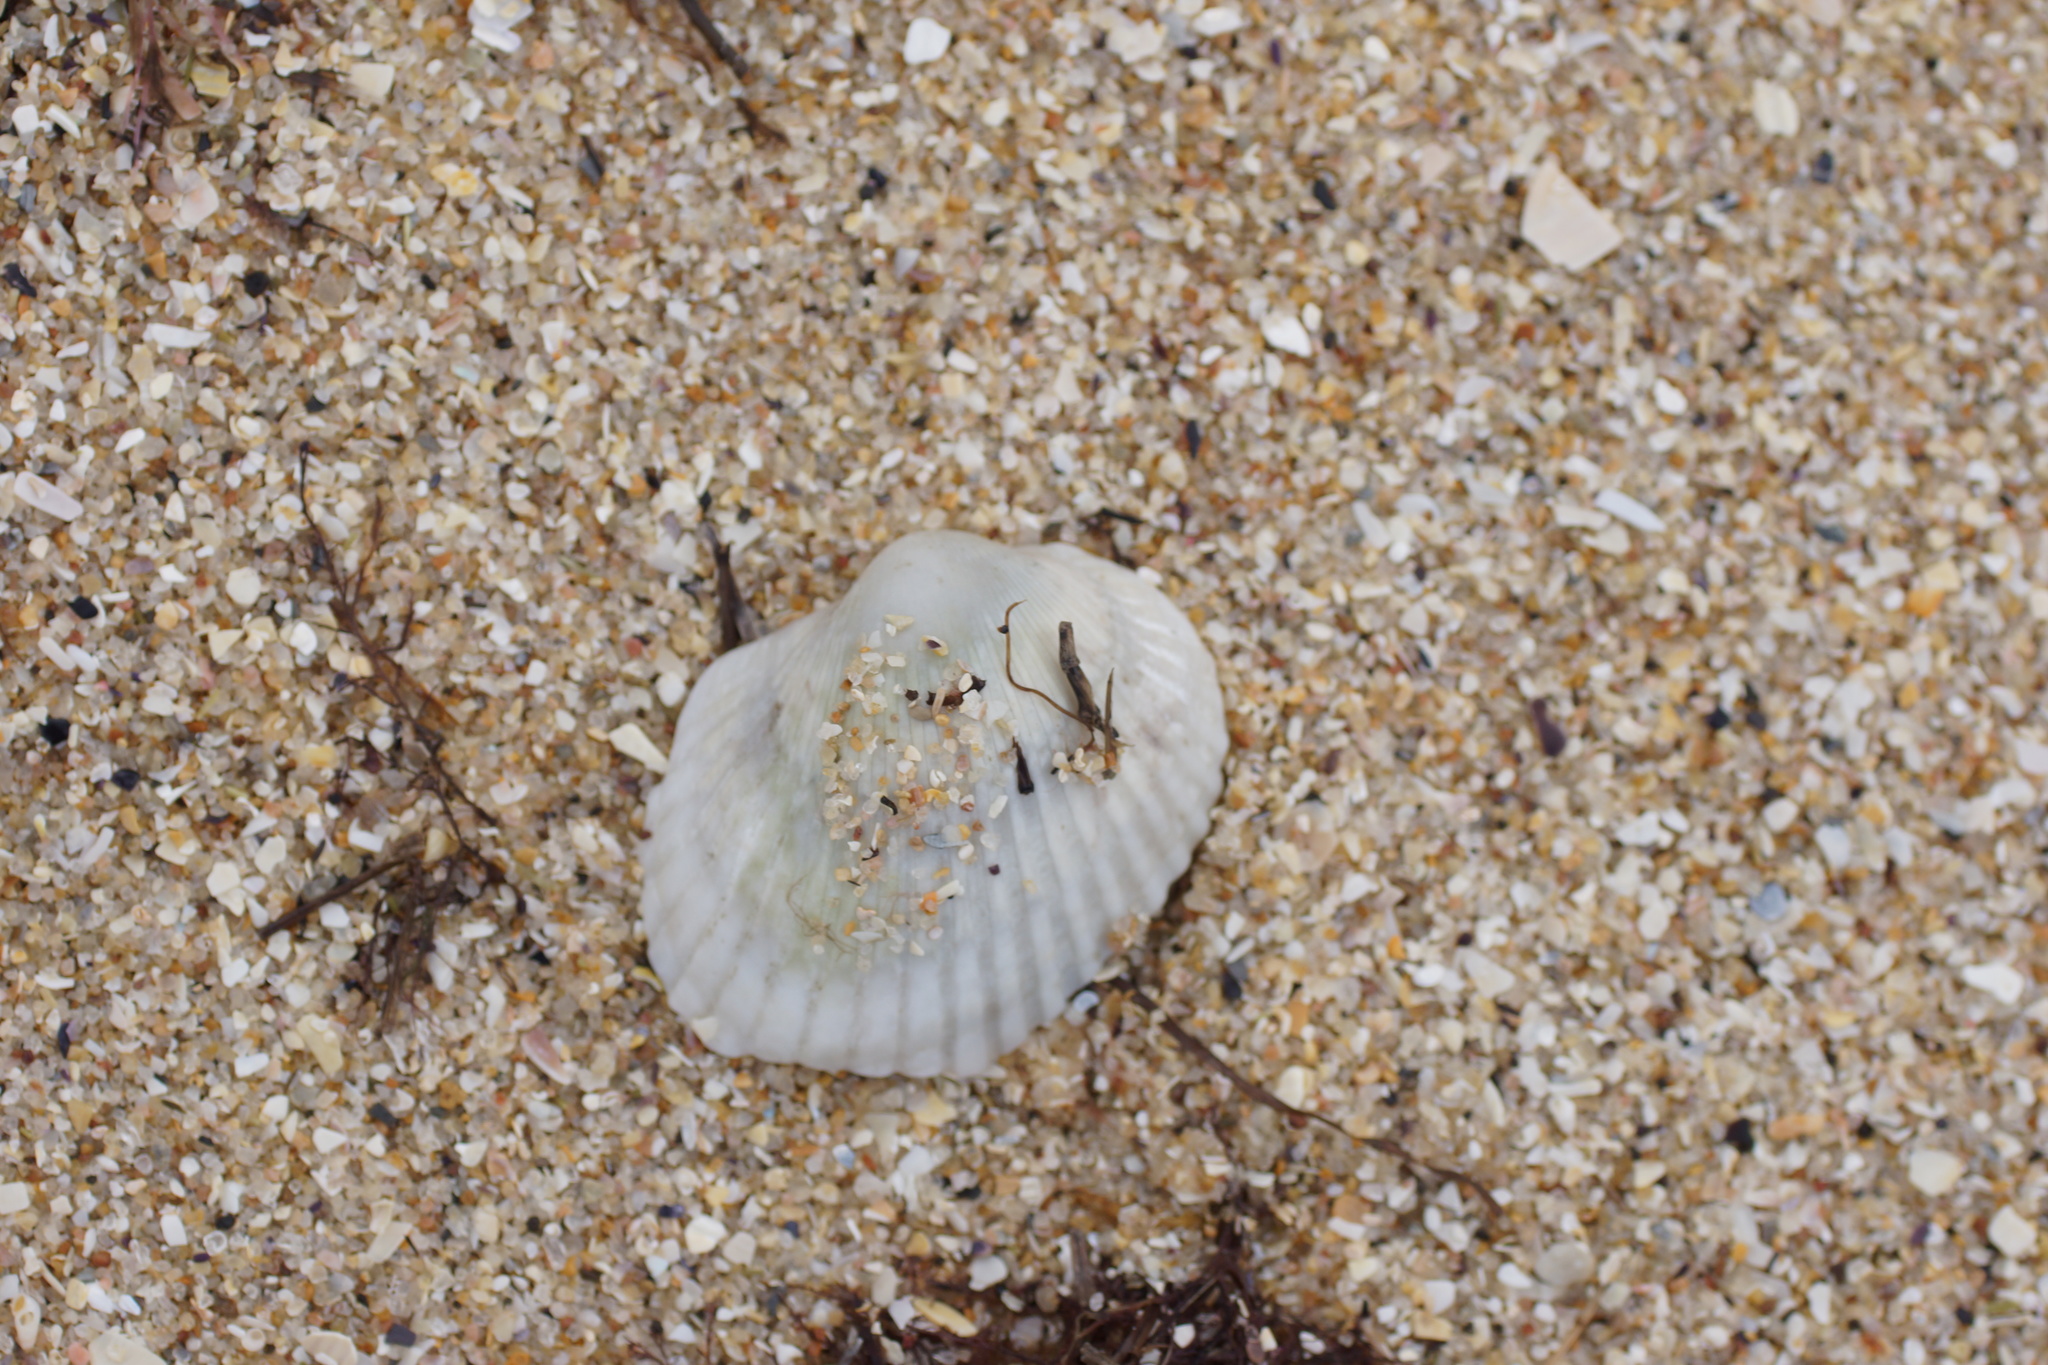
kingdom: Animalia
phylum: Mollusca
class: Bivalvia
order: Arcida
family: Arcidae
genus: Anadara
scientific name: Anadara trapezia
